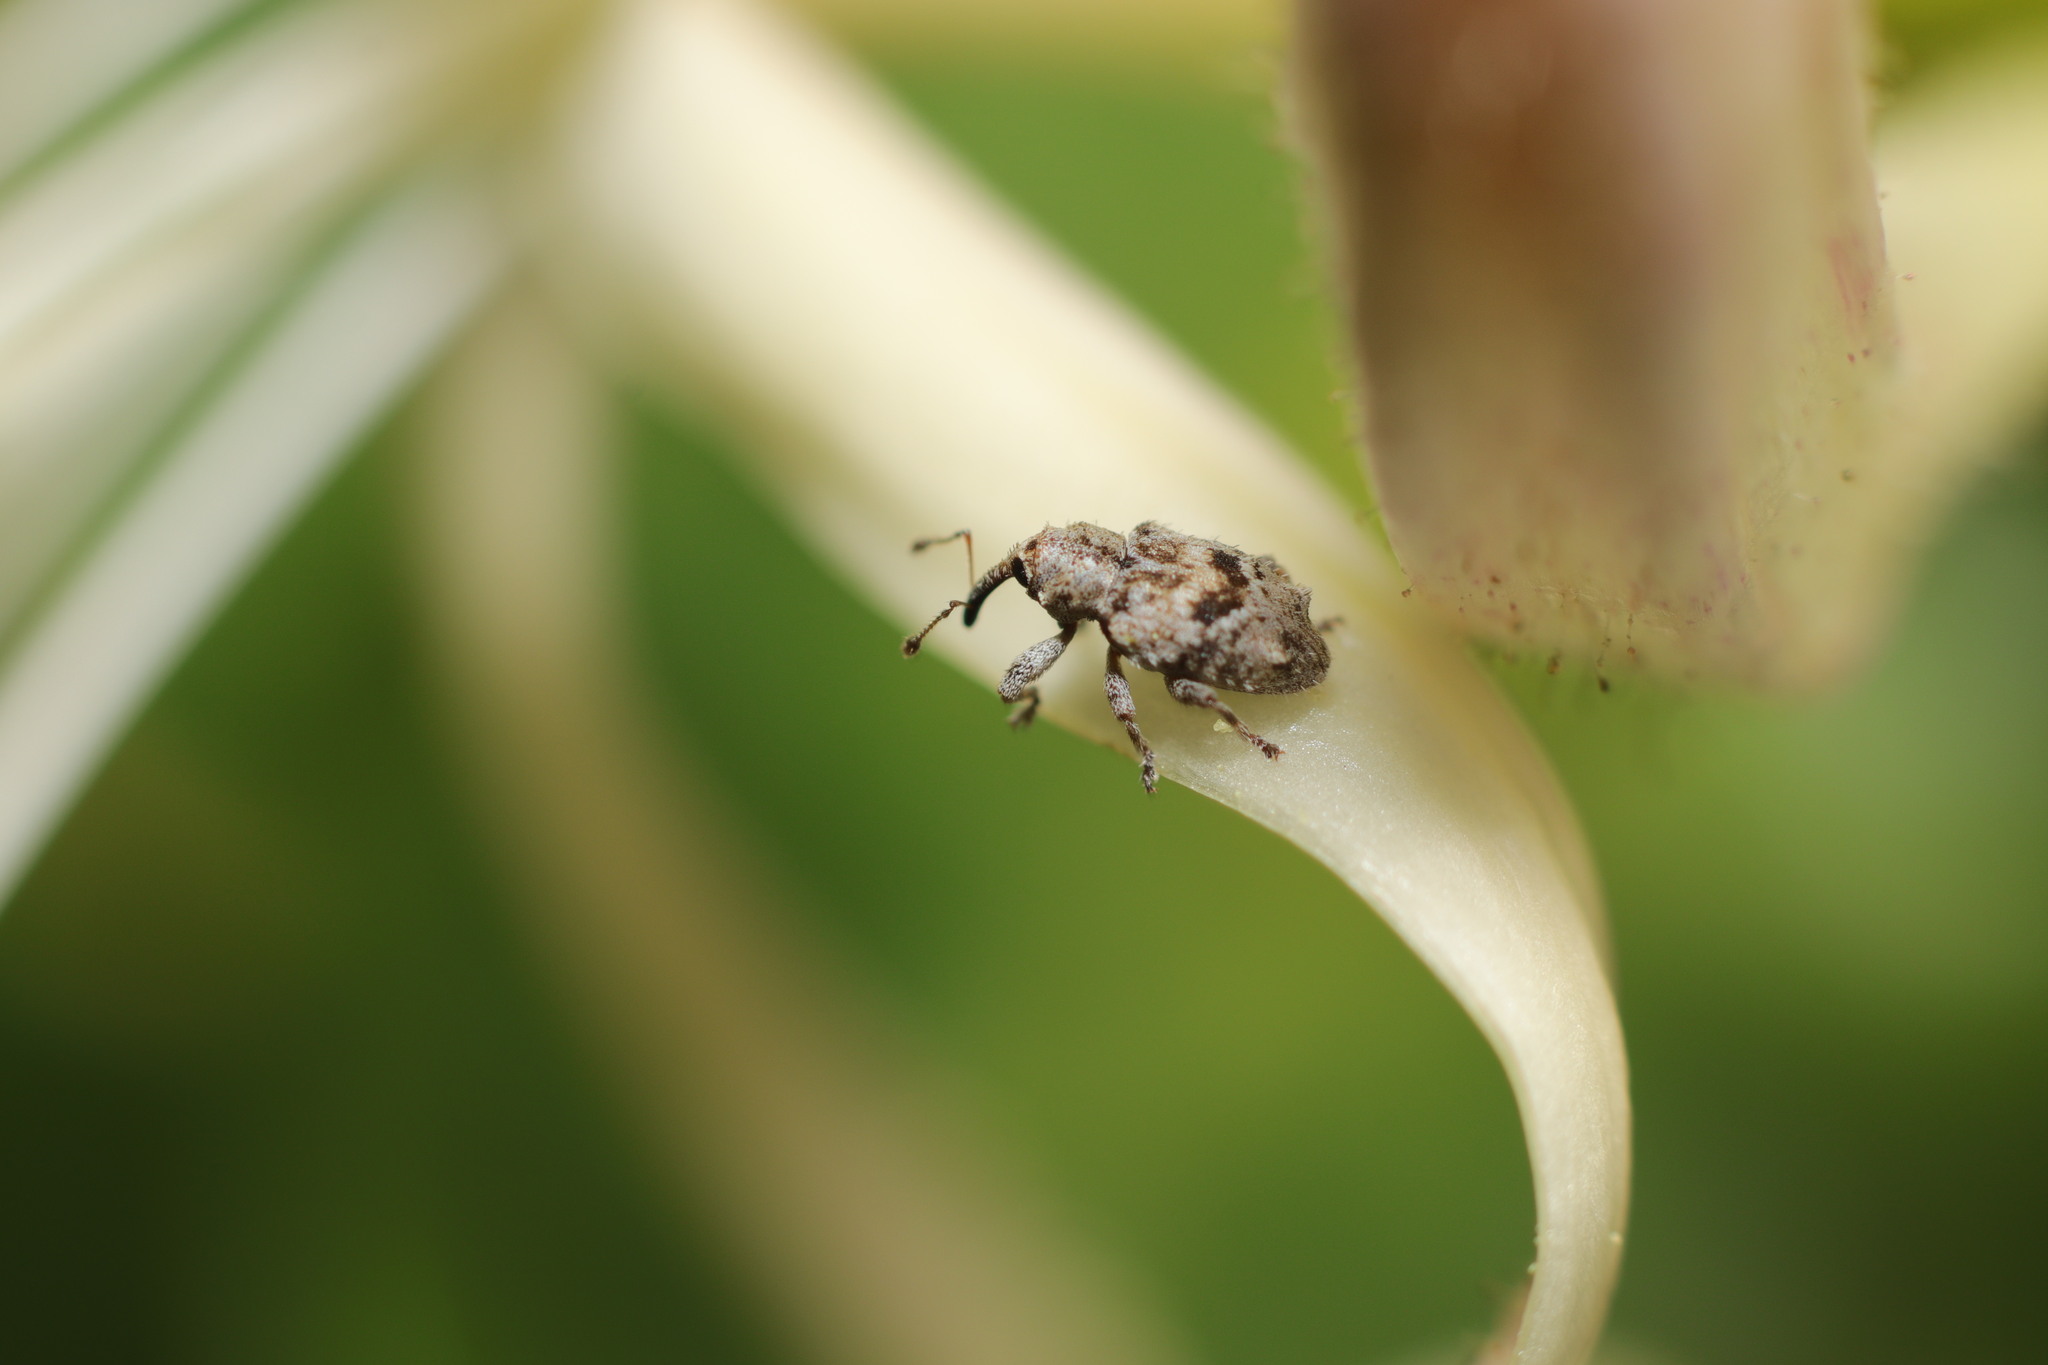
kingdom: Animalia
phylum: Arthropoda
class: Insecta
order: Coleoptera
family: Curculionidae
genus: Praolepra
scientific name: Praolepra infusca
